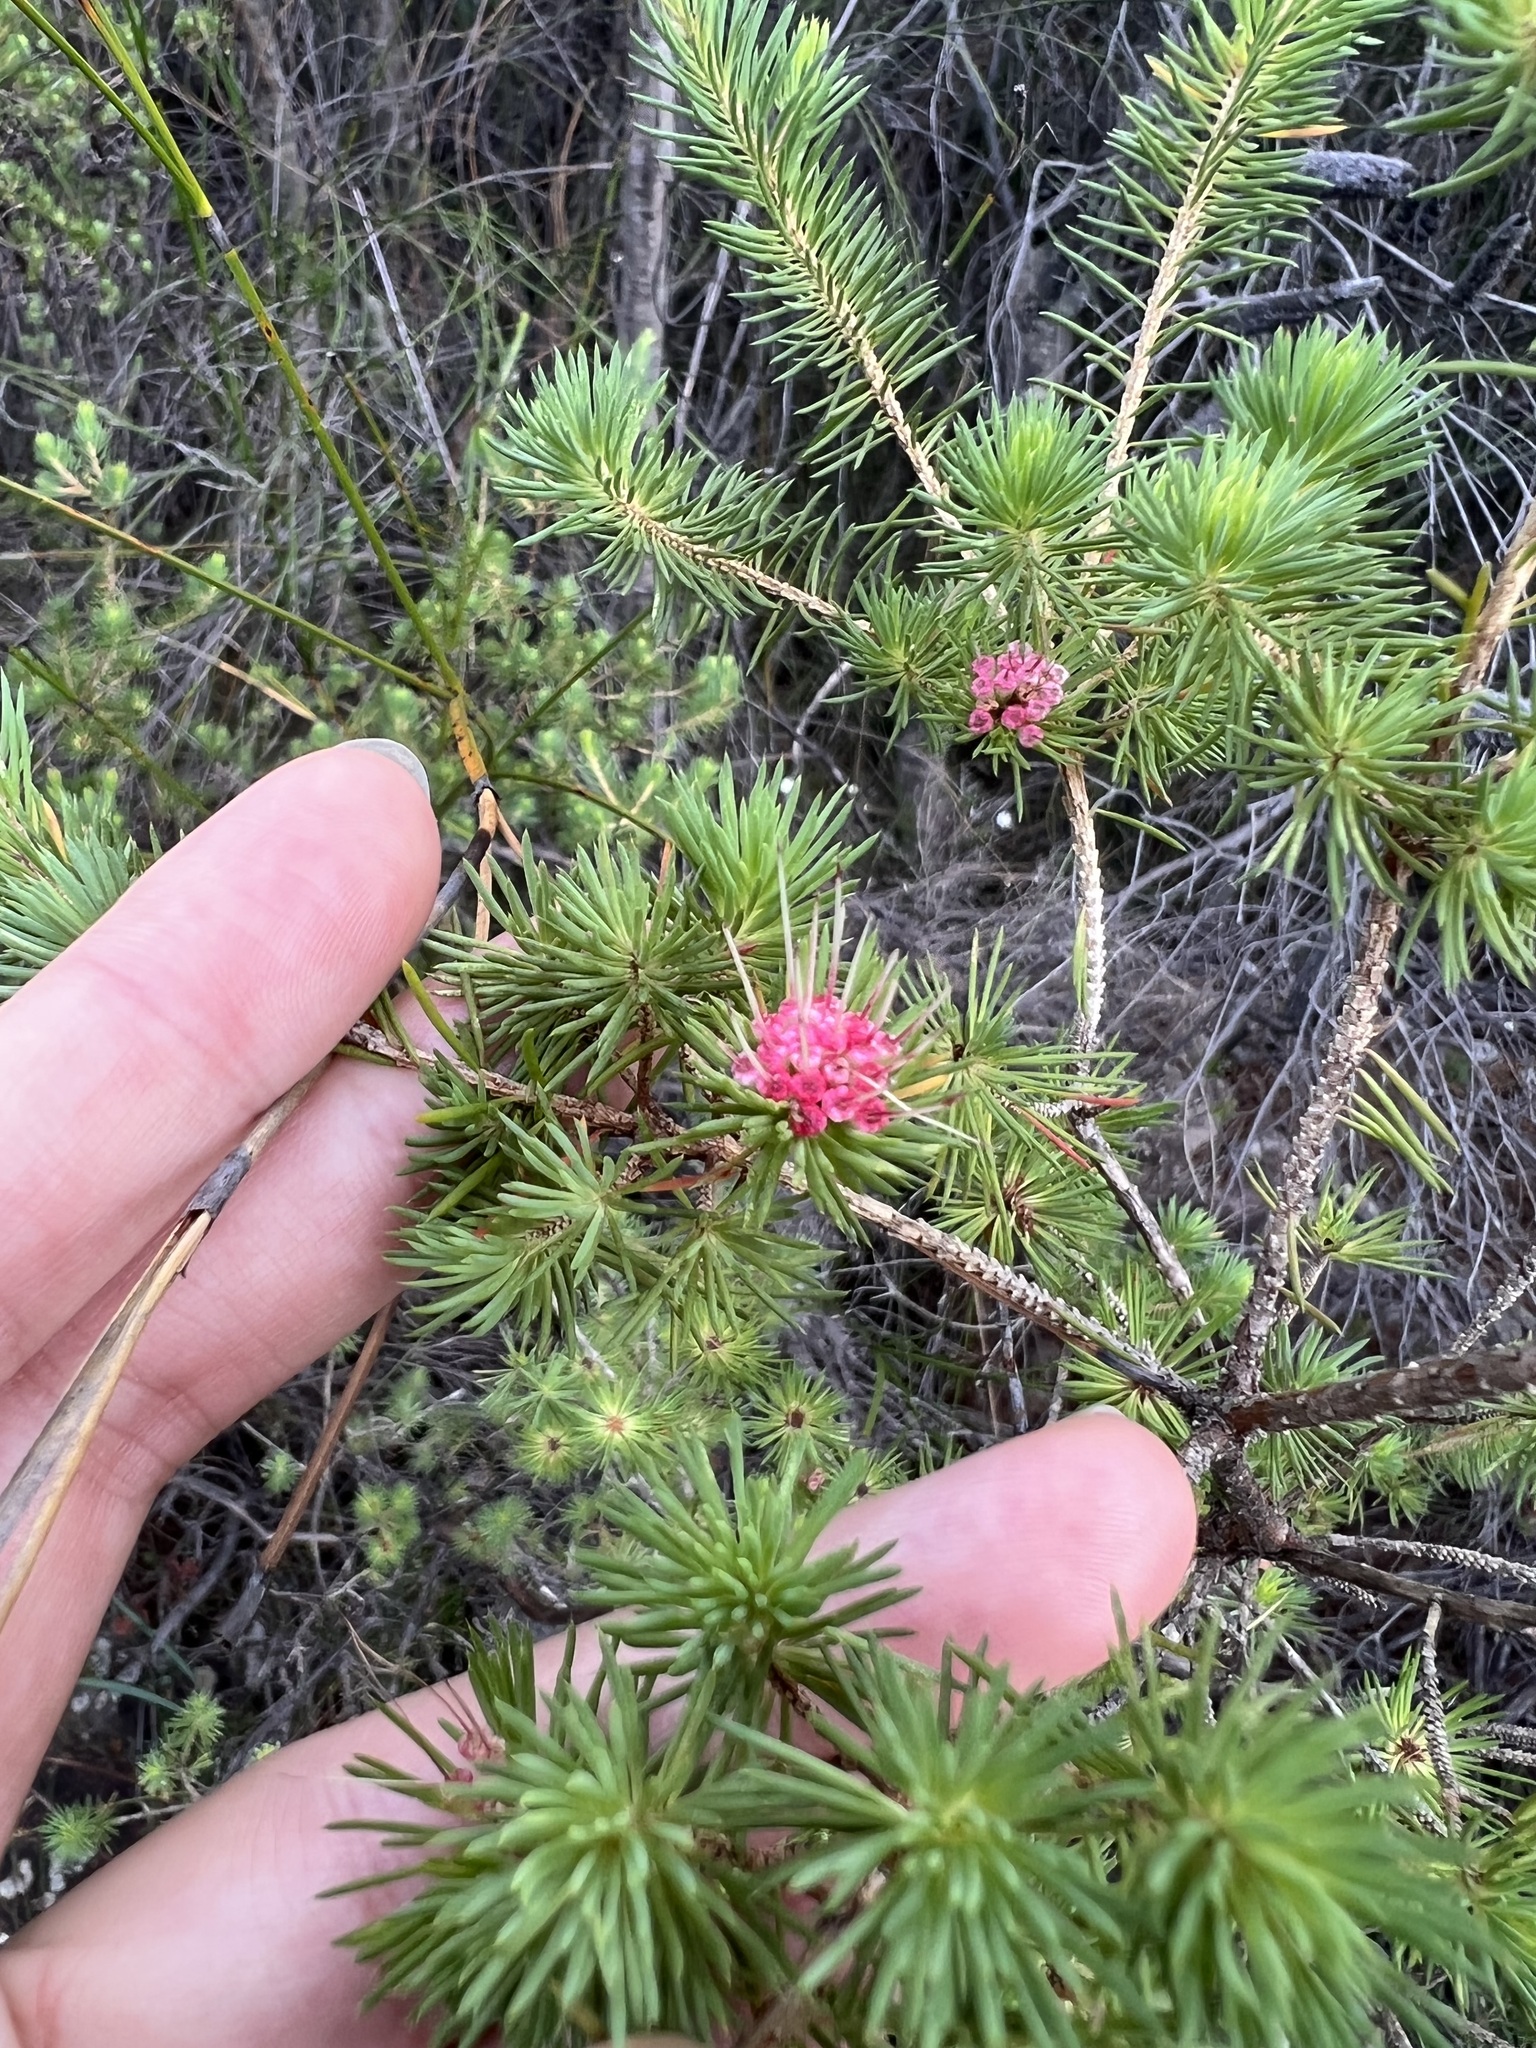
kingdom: Plantae
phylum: Tracheophyta
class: Magnoliopsida
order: Myrtales
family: Myrtaceae
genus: Darwinia
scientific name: Darwinia fascicularis
